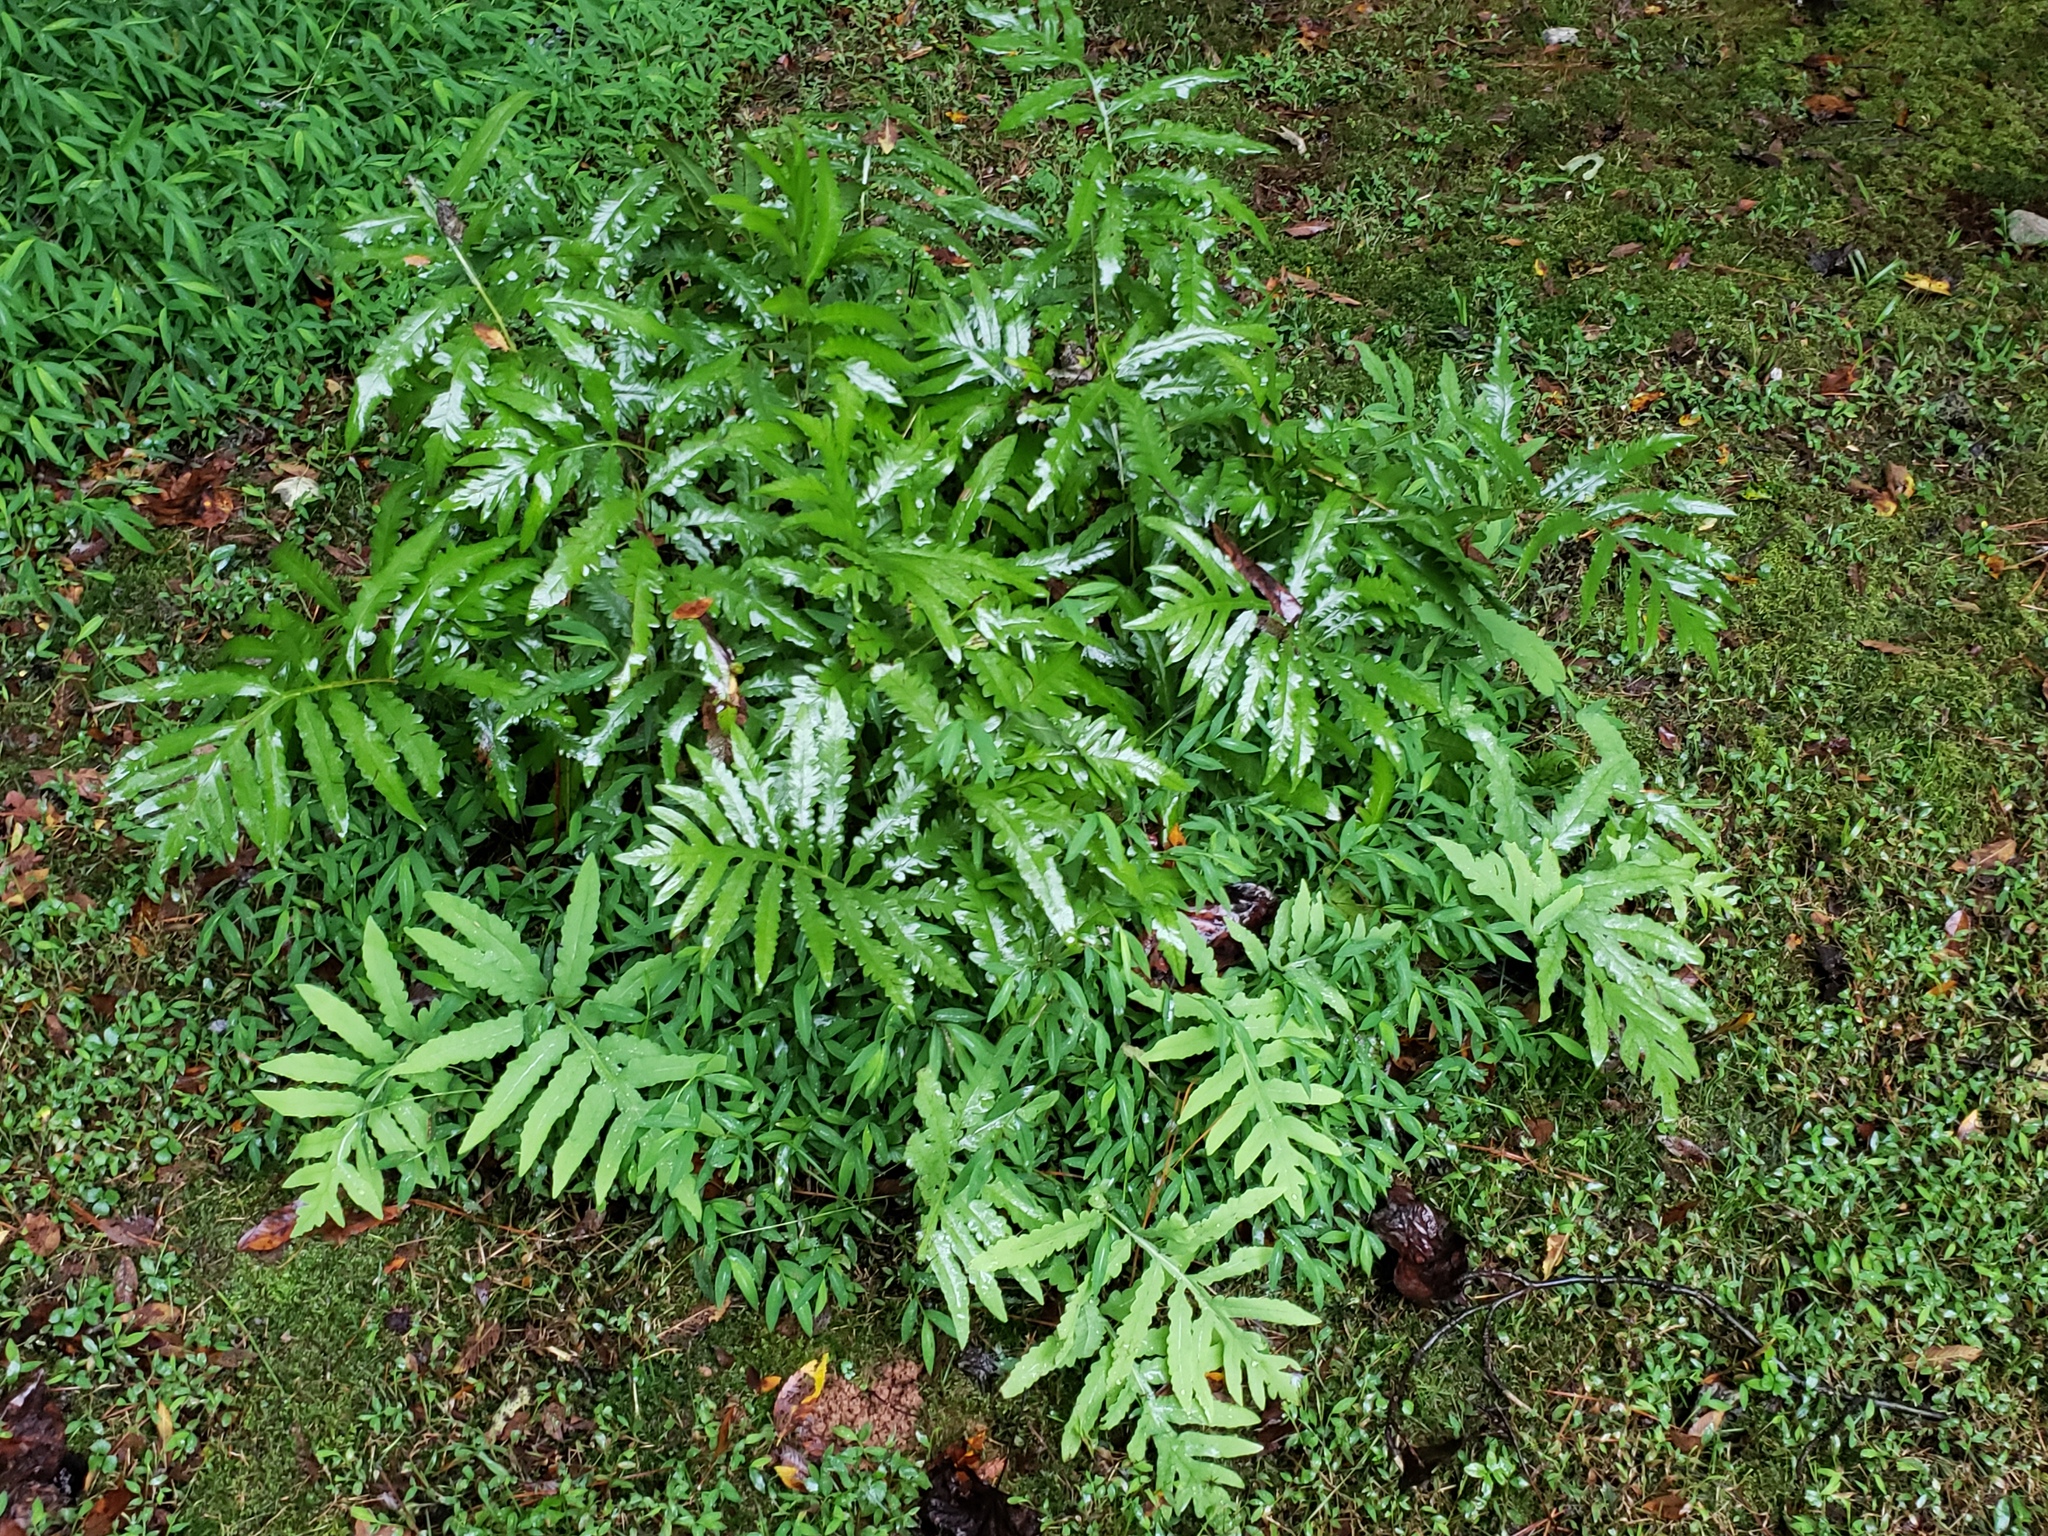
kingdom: Plantae
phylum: Tracheophyta
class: Polypodiopsida
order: Polypodiales
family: Onocleaceae
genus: Onoclea
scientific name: Onoclea sensibilis
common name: Sensitive fern
